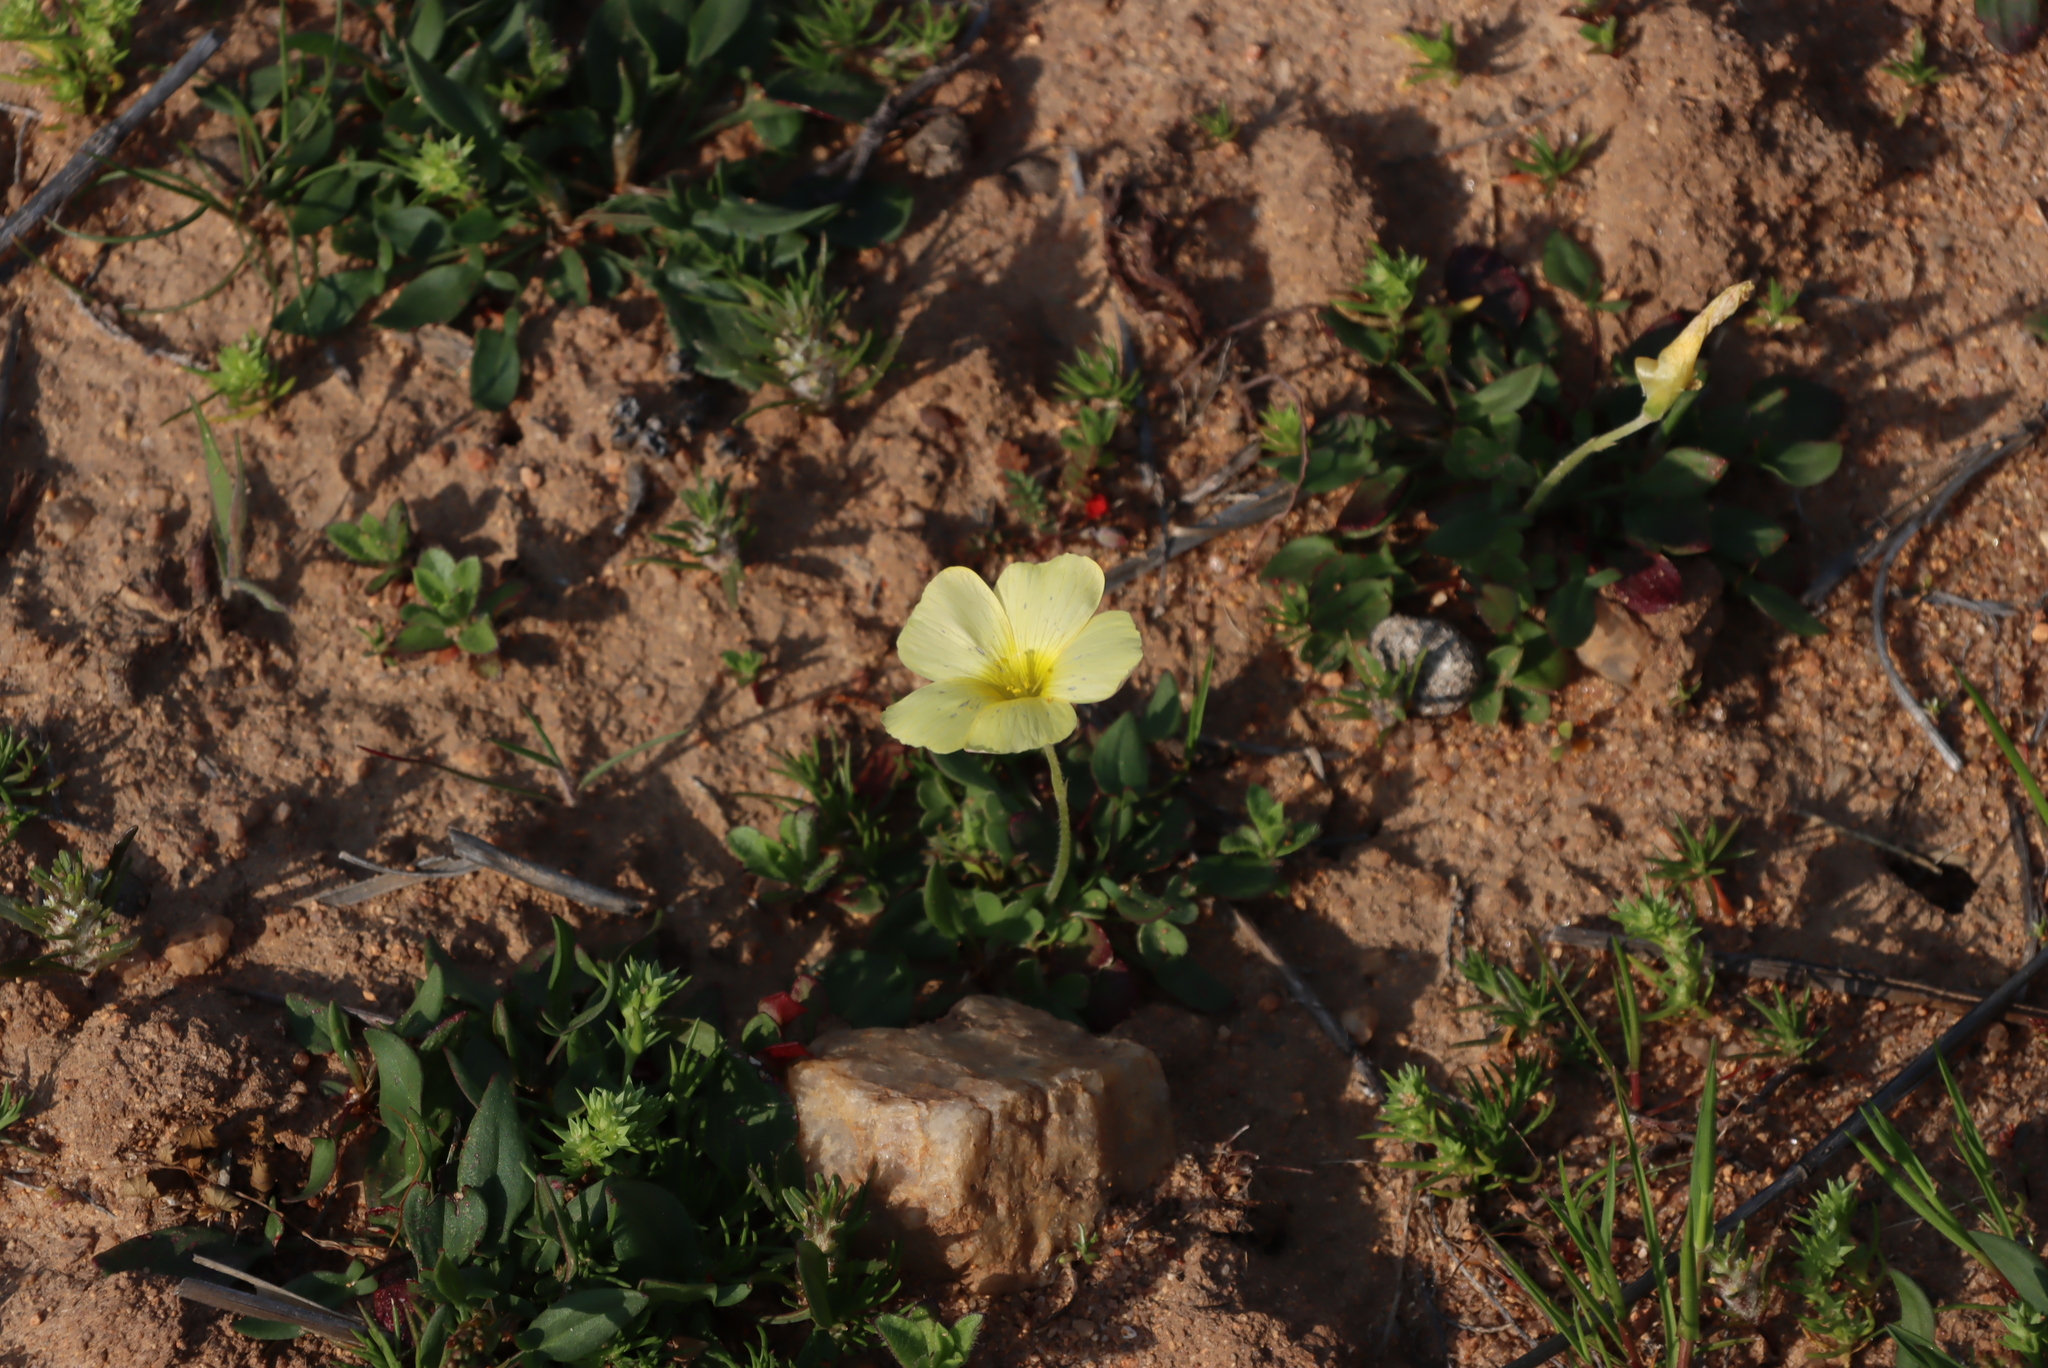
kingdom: Plantae
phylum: Tracheophyta
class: Magnoliopsida
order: Oxalidales
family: Oxalidaceae
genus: Oxalis
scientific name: Oxalis obtusa
